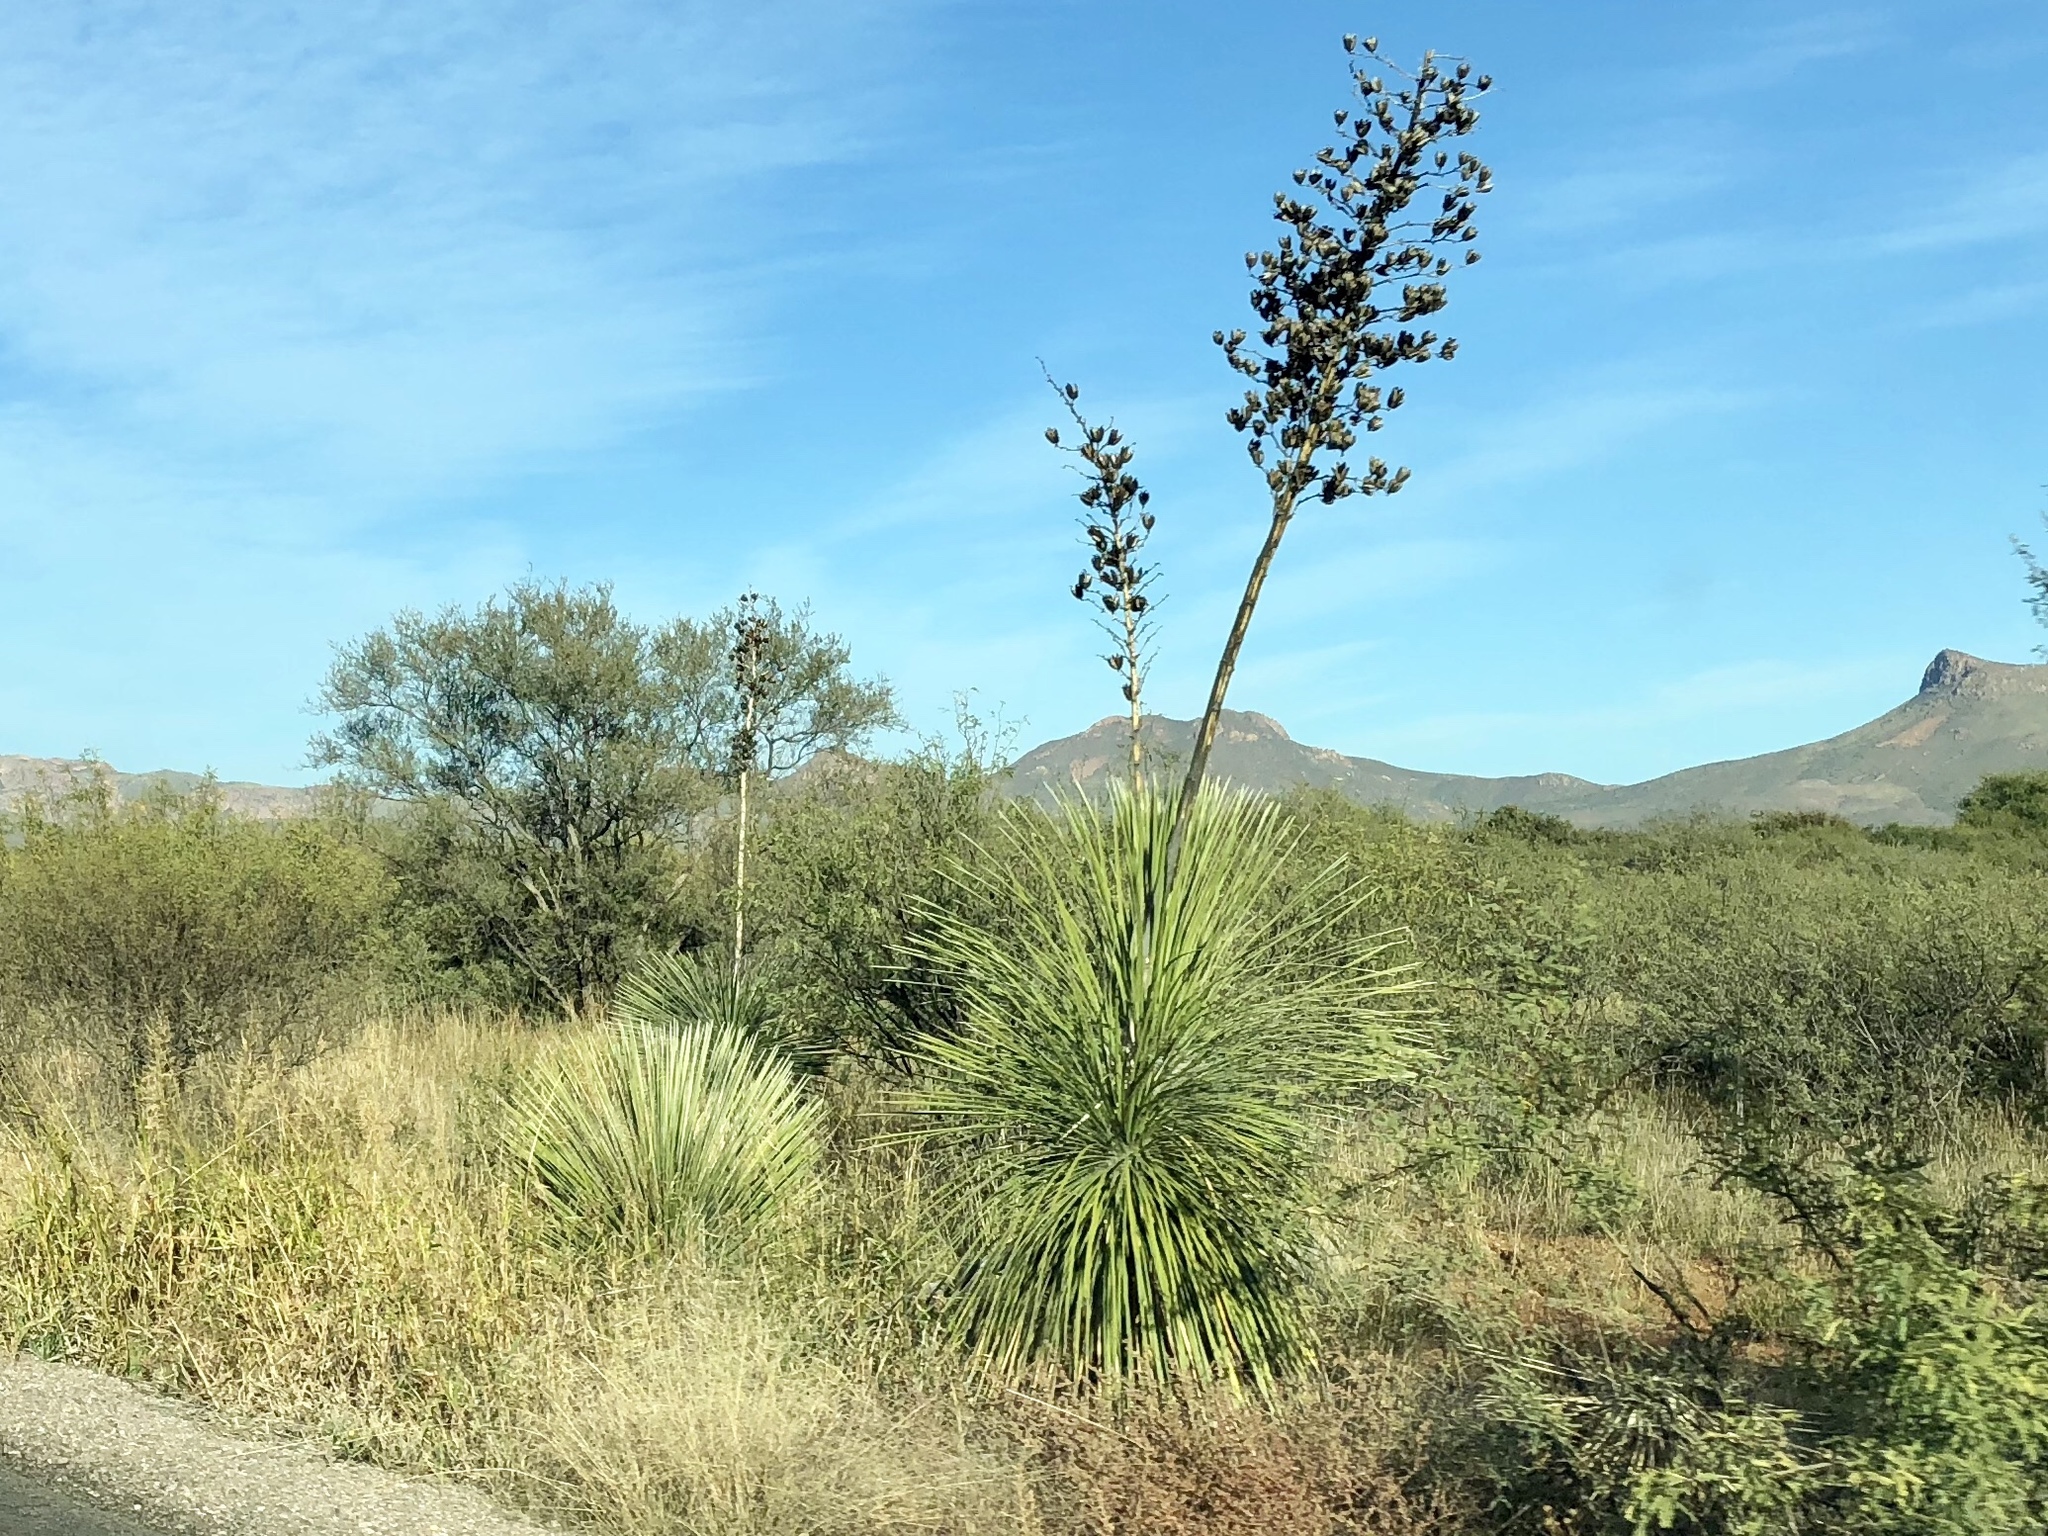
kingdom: Plantae
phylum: Tracheophyta
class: Liliopsida
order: Asparagales
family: Asparagaceae
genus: Yucca
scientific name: Yucca elata
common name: Palmella
